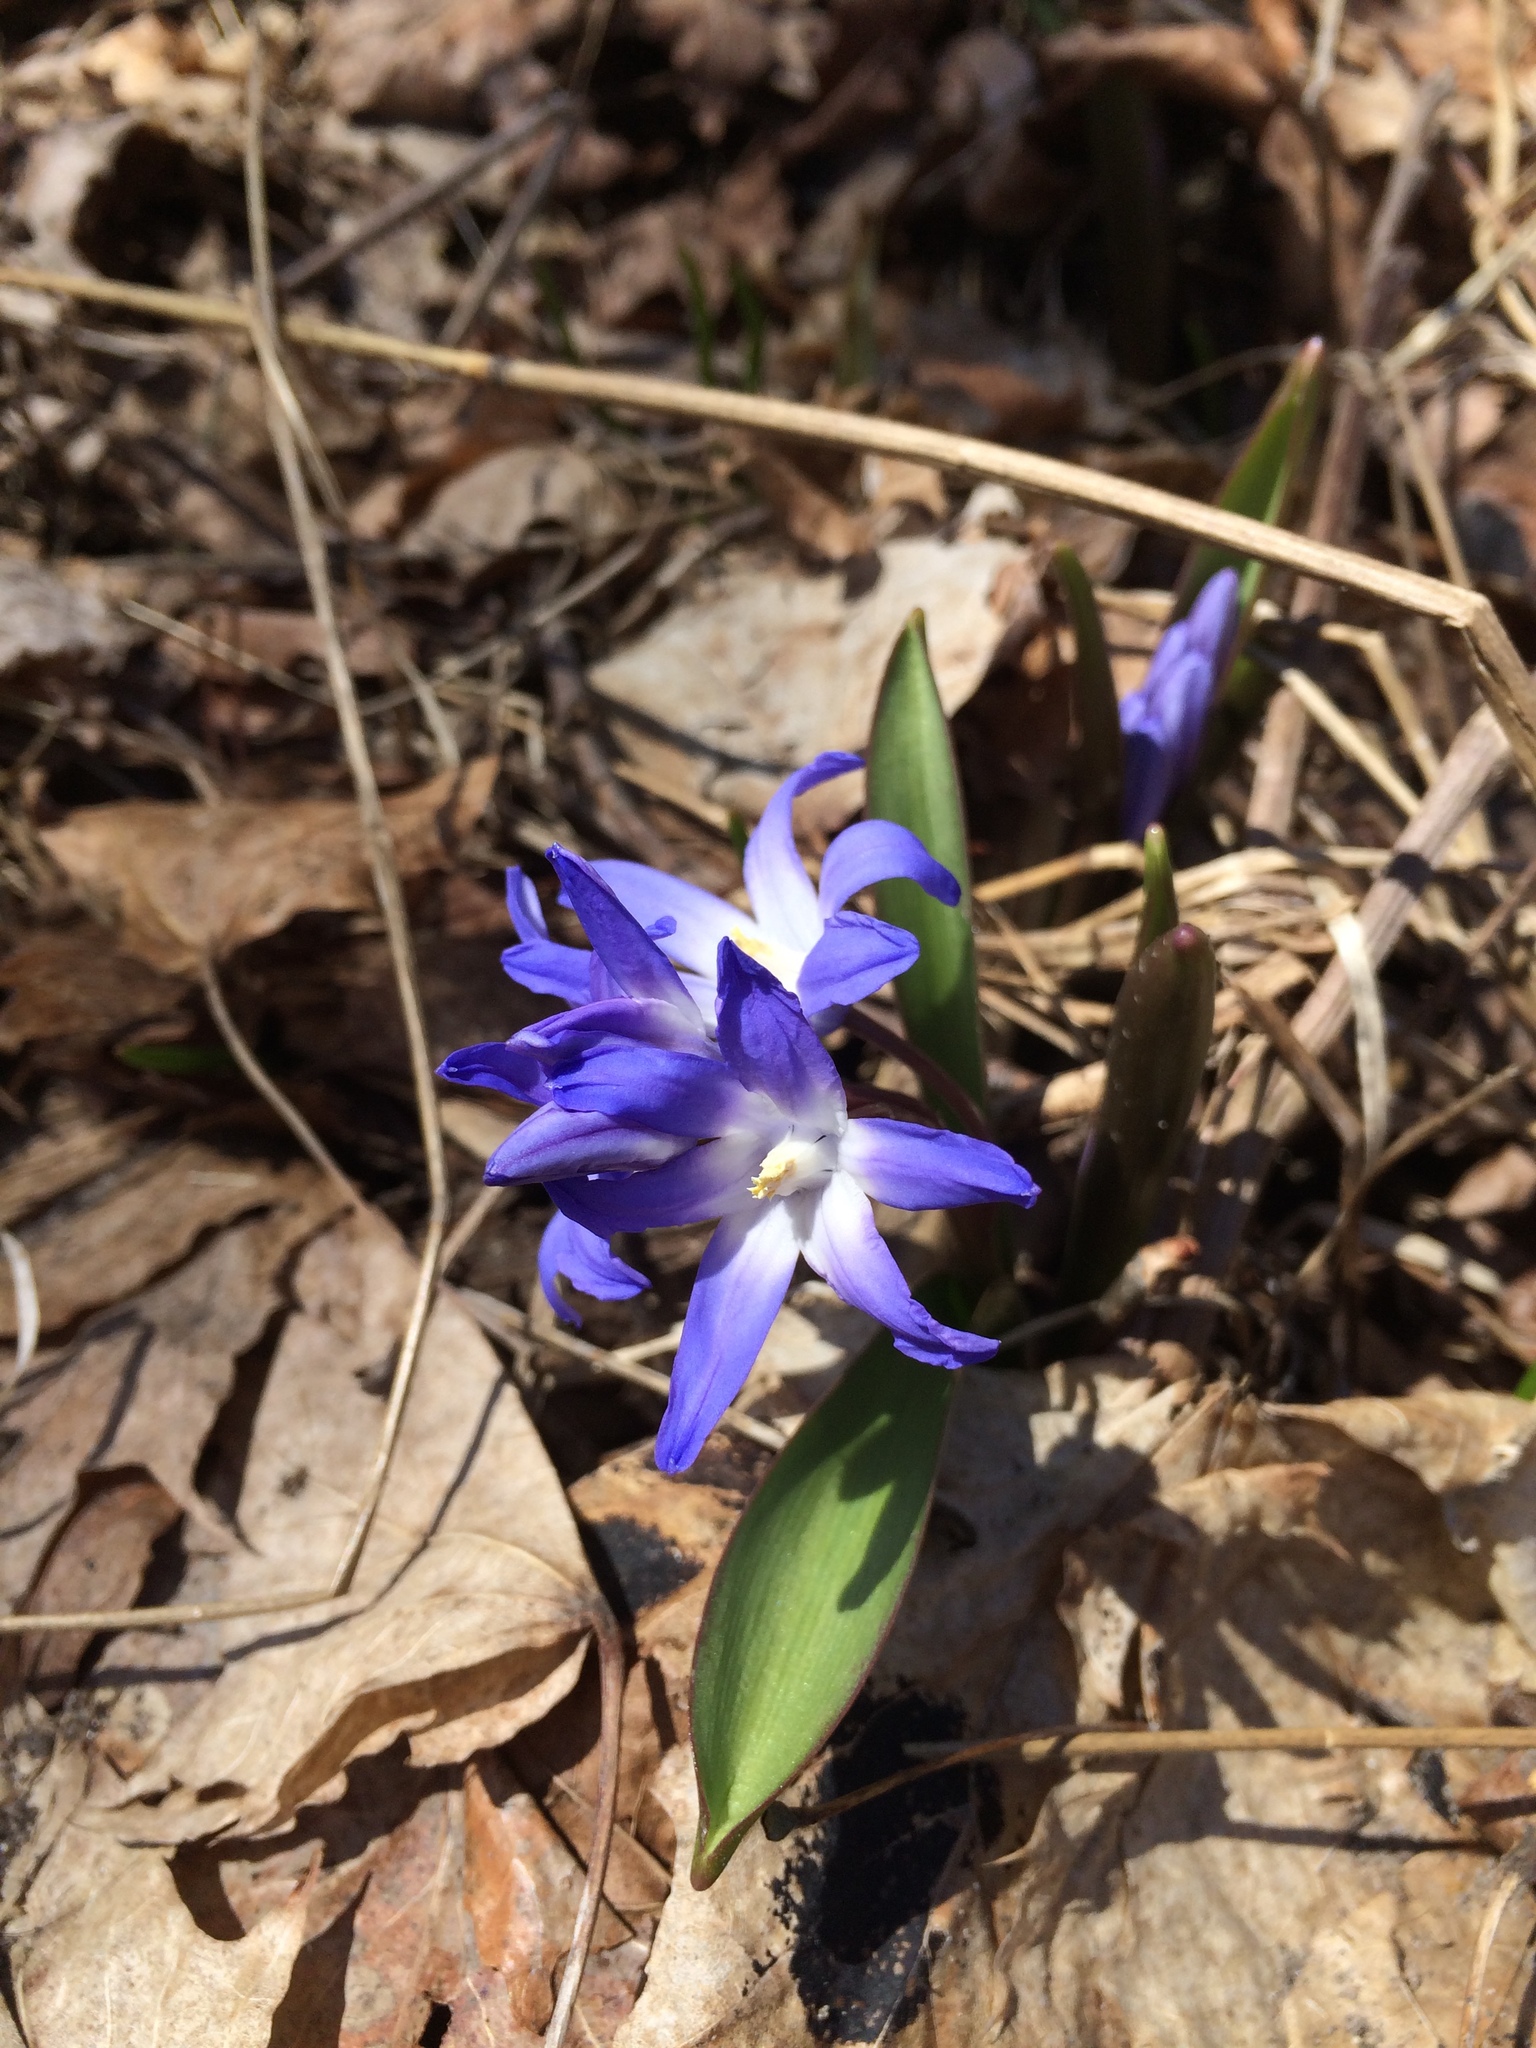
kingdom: Plantae
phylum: Tracheophyta
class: Liliopsida
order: Asparagales
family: Asparagaceae
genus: Scilla
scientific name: Scilla forbesii
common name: Glory-of-the-snow
